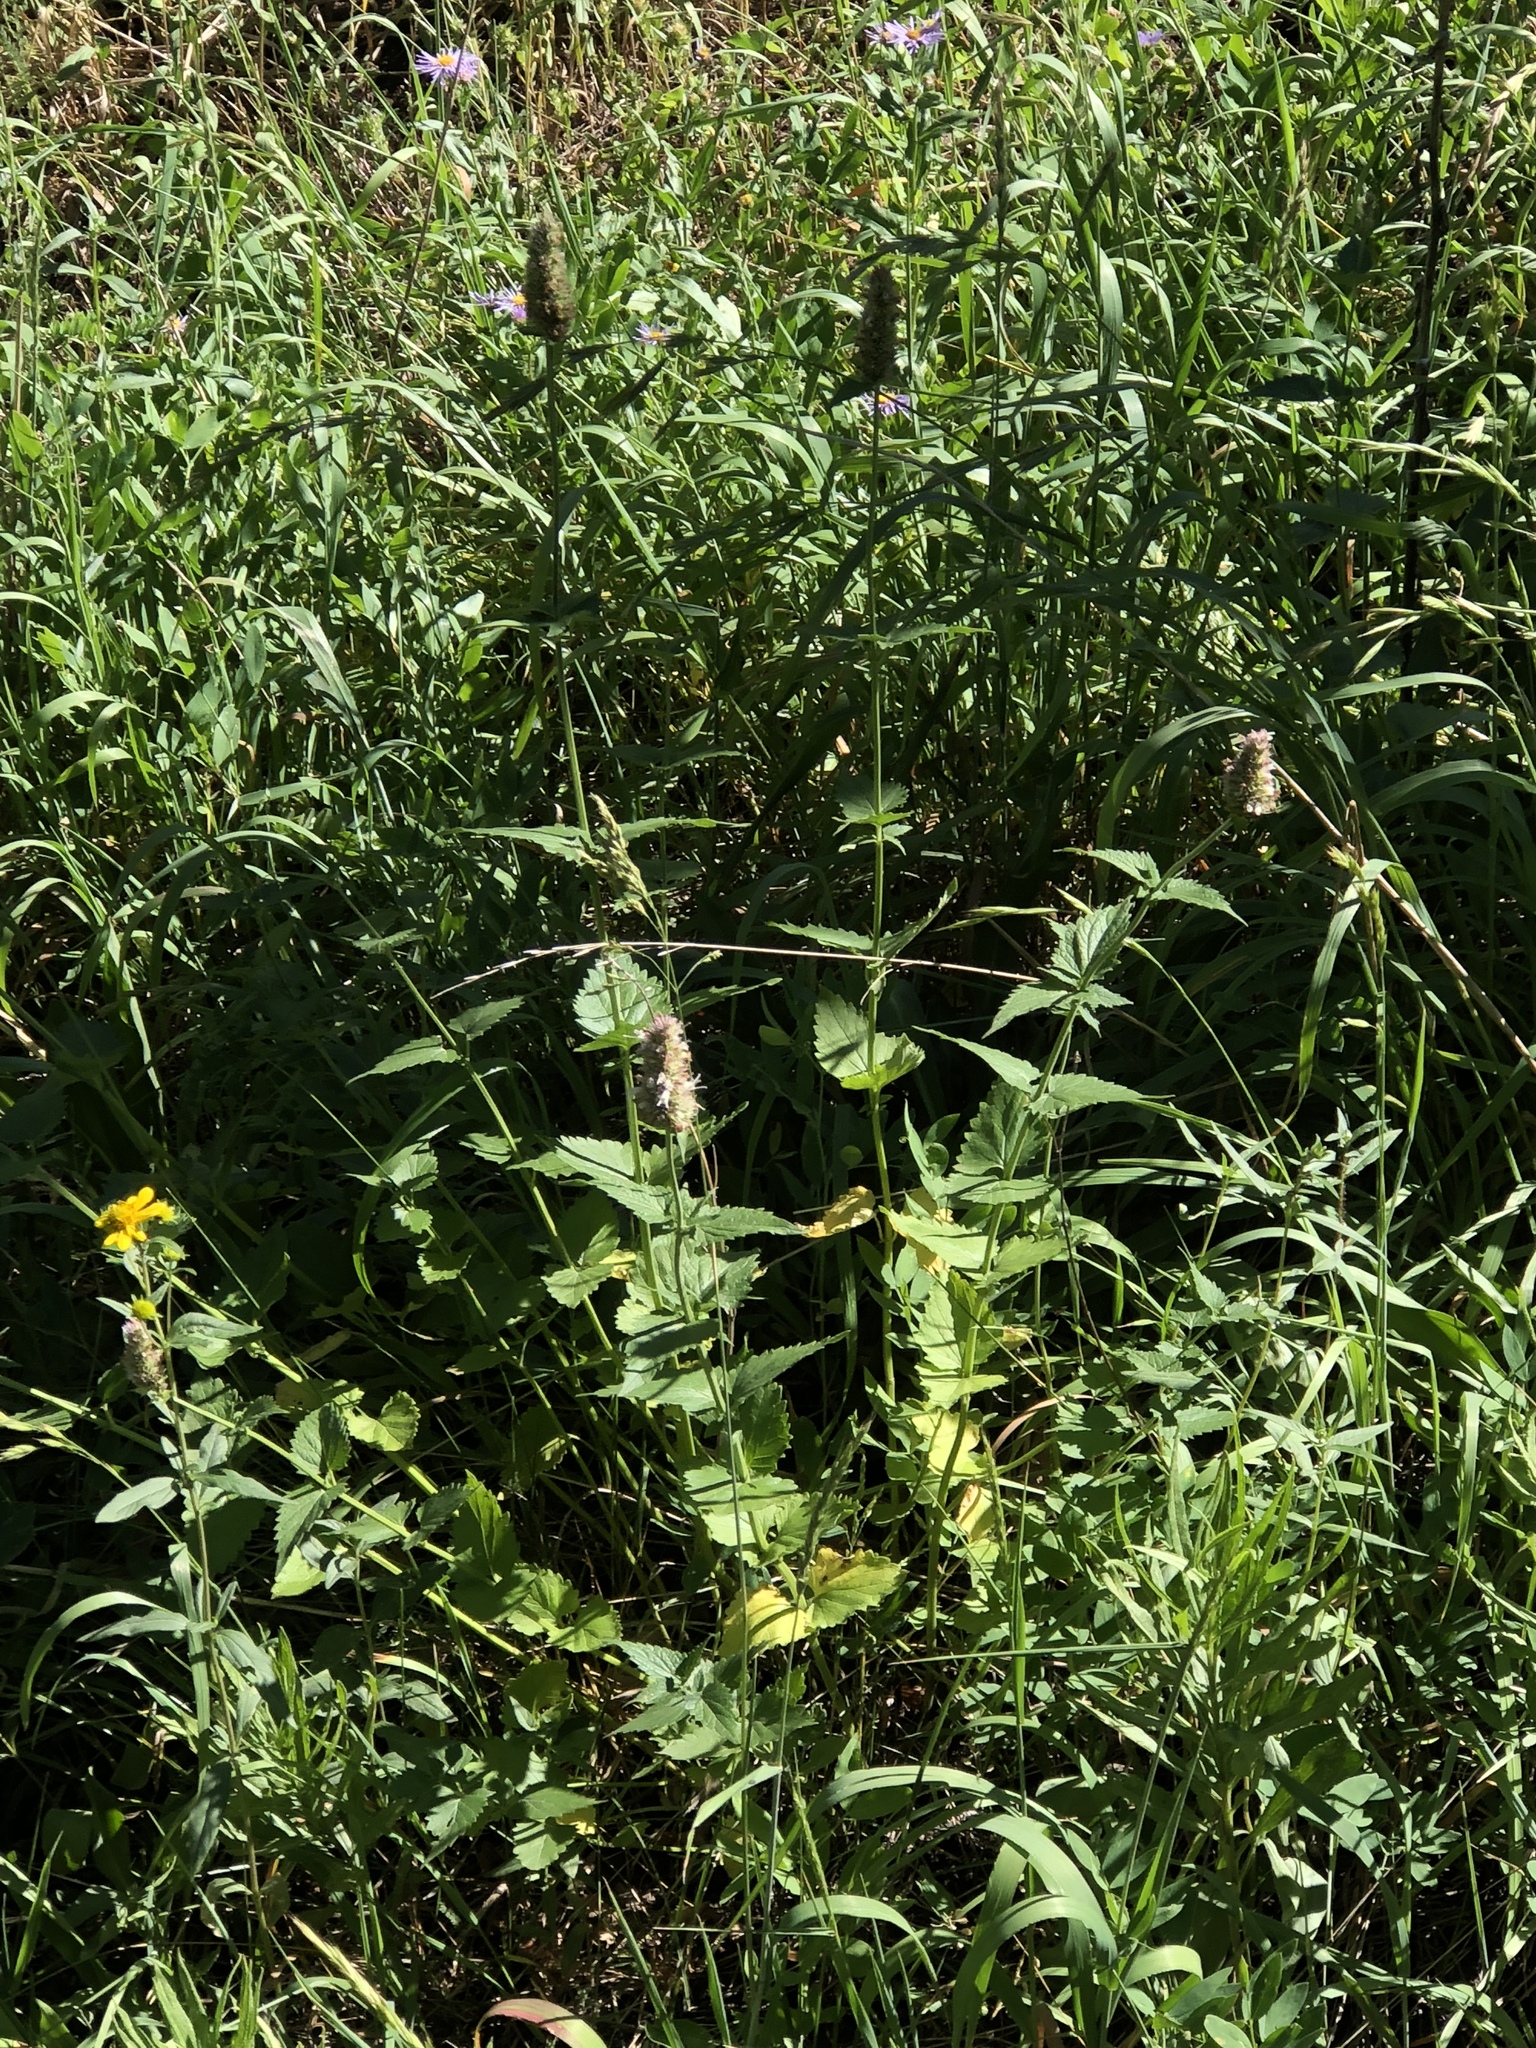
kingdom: Plantae
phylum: Tracheophyta
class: Magnoliopsida
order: Lamiales
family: Lamiaceae
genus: Agastache
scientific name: Agastache urticifolia
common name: Horsemint giant hyssop
